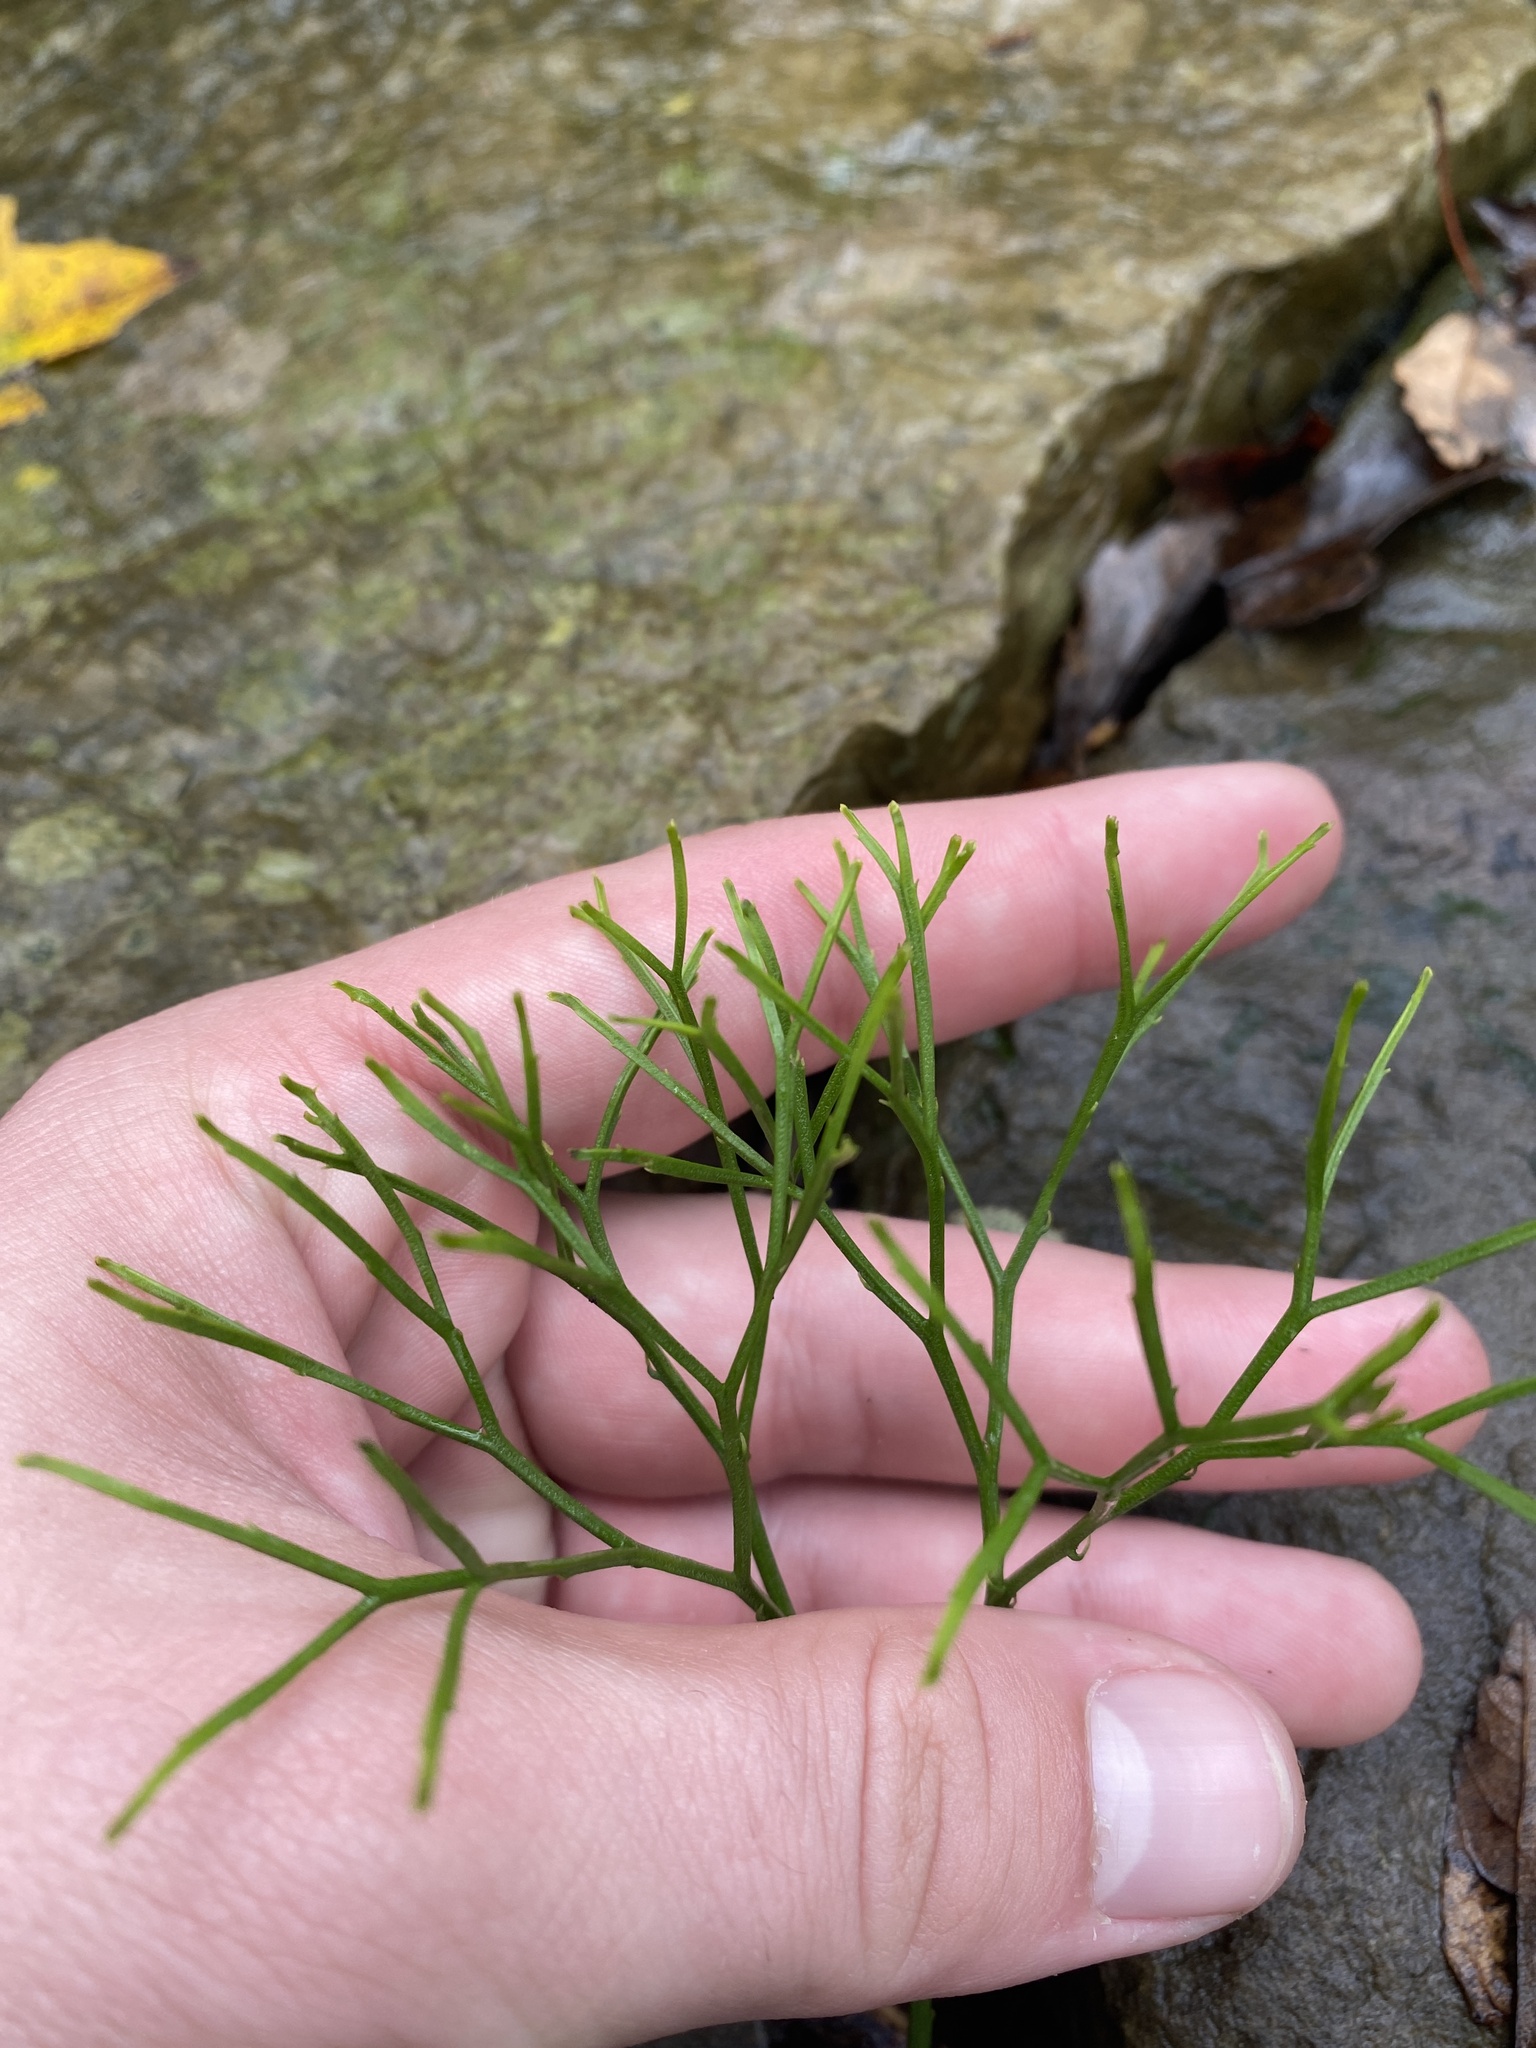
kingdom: Plantae
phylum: Tracheophyta
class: Polypodiopsida
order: Psilotales
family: Psilotaceae
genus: Psilotum
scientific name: Psilotum nudum
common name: Skeleton fork fern
